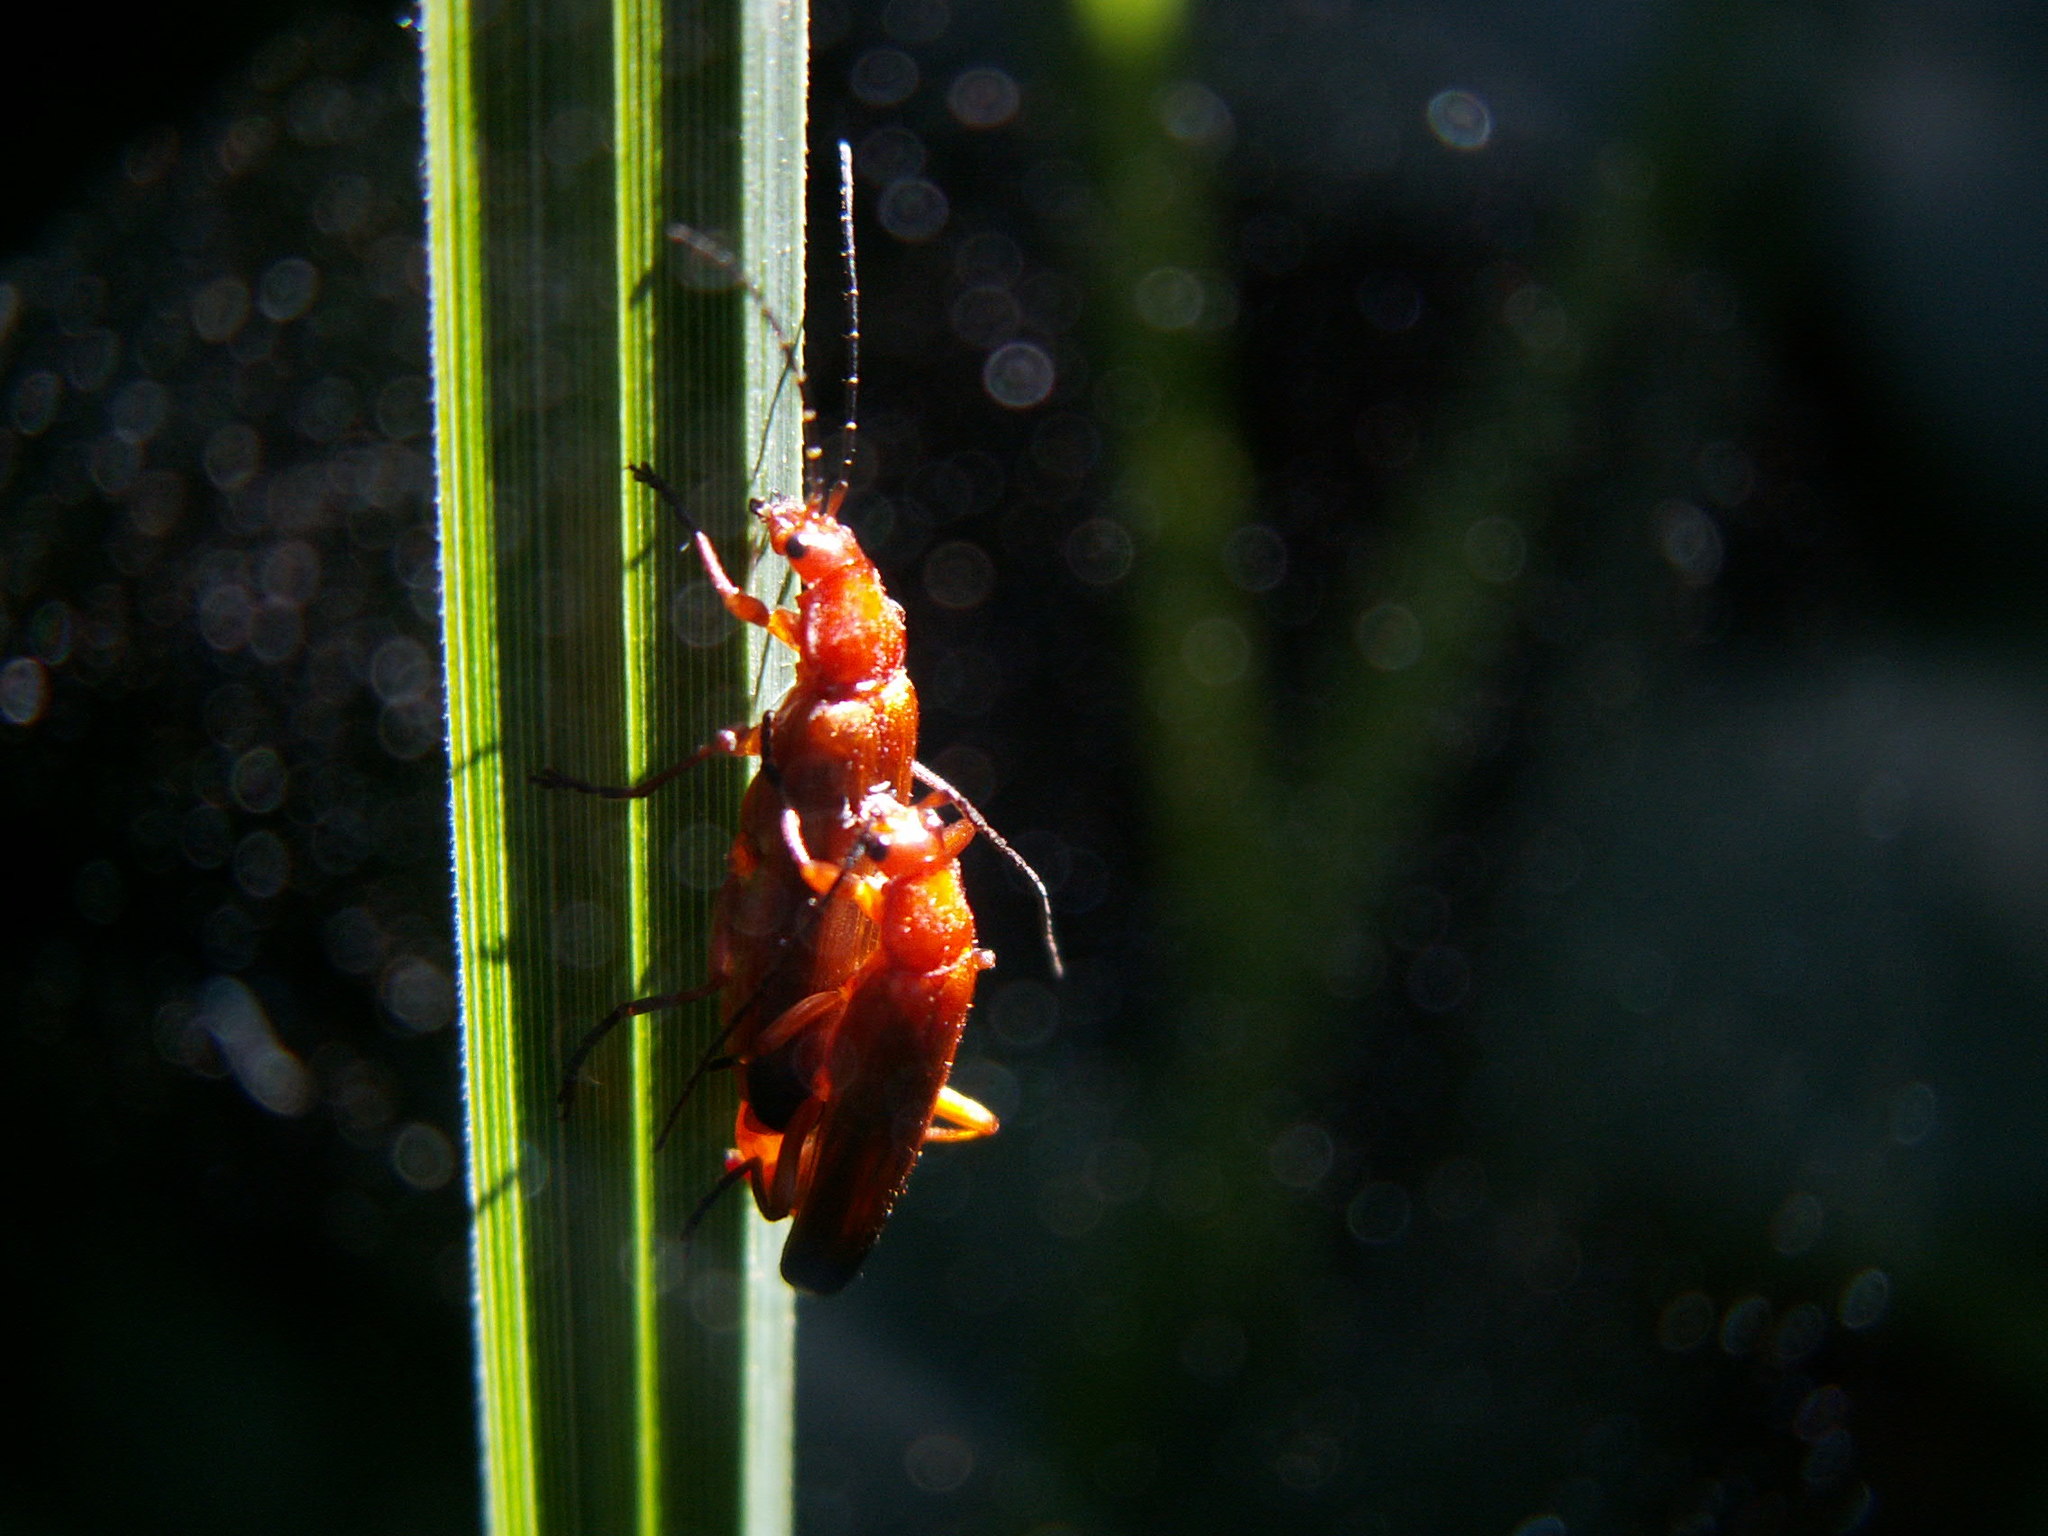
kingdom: Animalia
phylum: Arthropoda
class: Insecta
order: Coleoptera
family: Cantharidae
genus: Rhagonycha
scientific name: Rhagonycha fulva
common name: Common red soldier beetle
